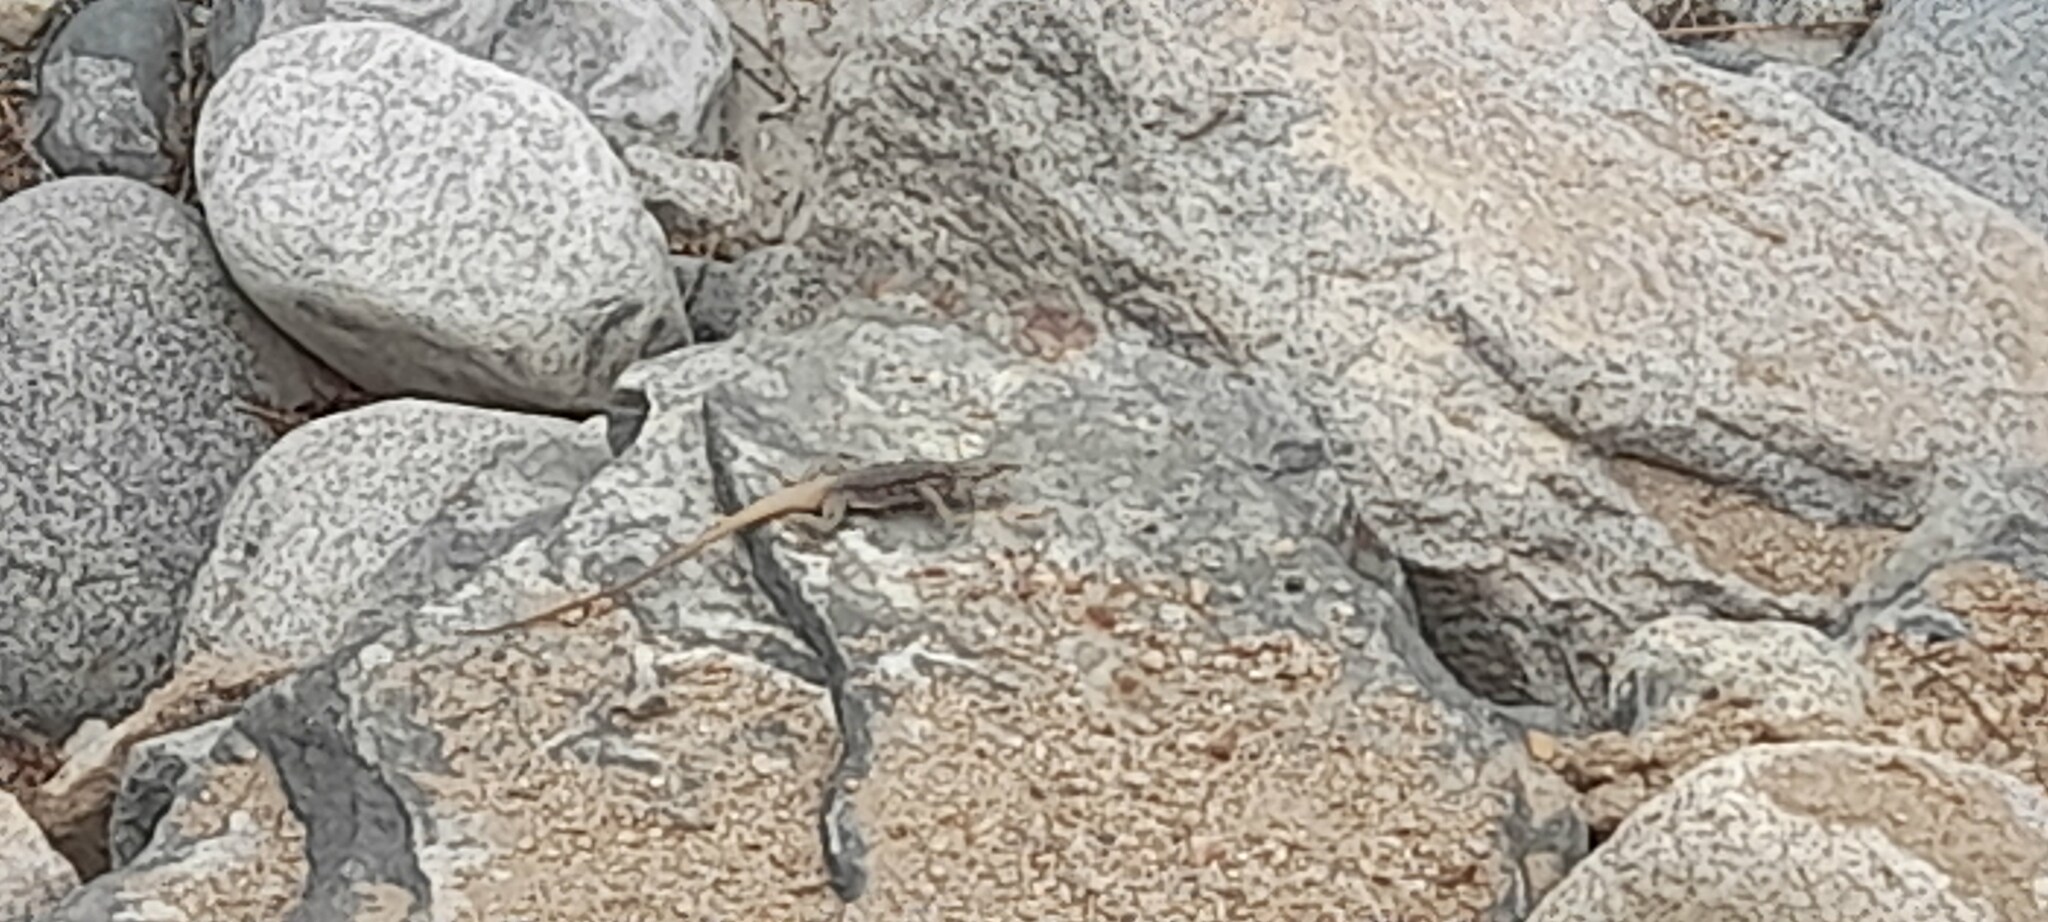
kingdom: Animalia
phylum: Chordata
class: Squamata
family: Agamidae
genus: Laudakia
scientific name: Laudakia tuberculata
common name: Kashmir rock agama
